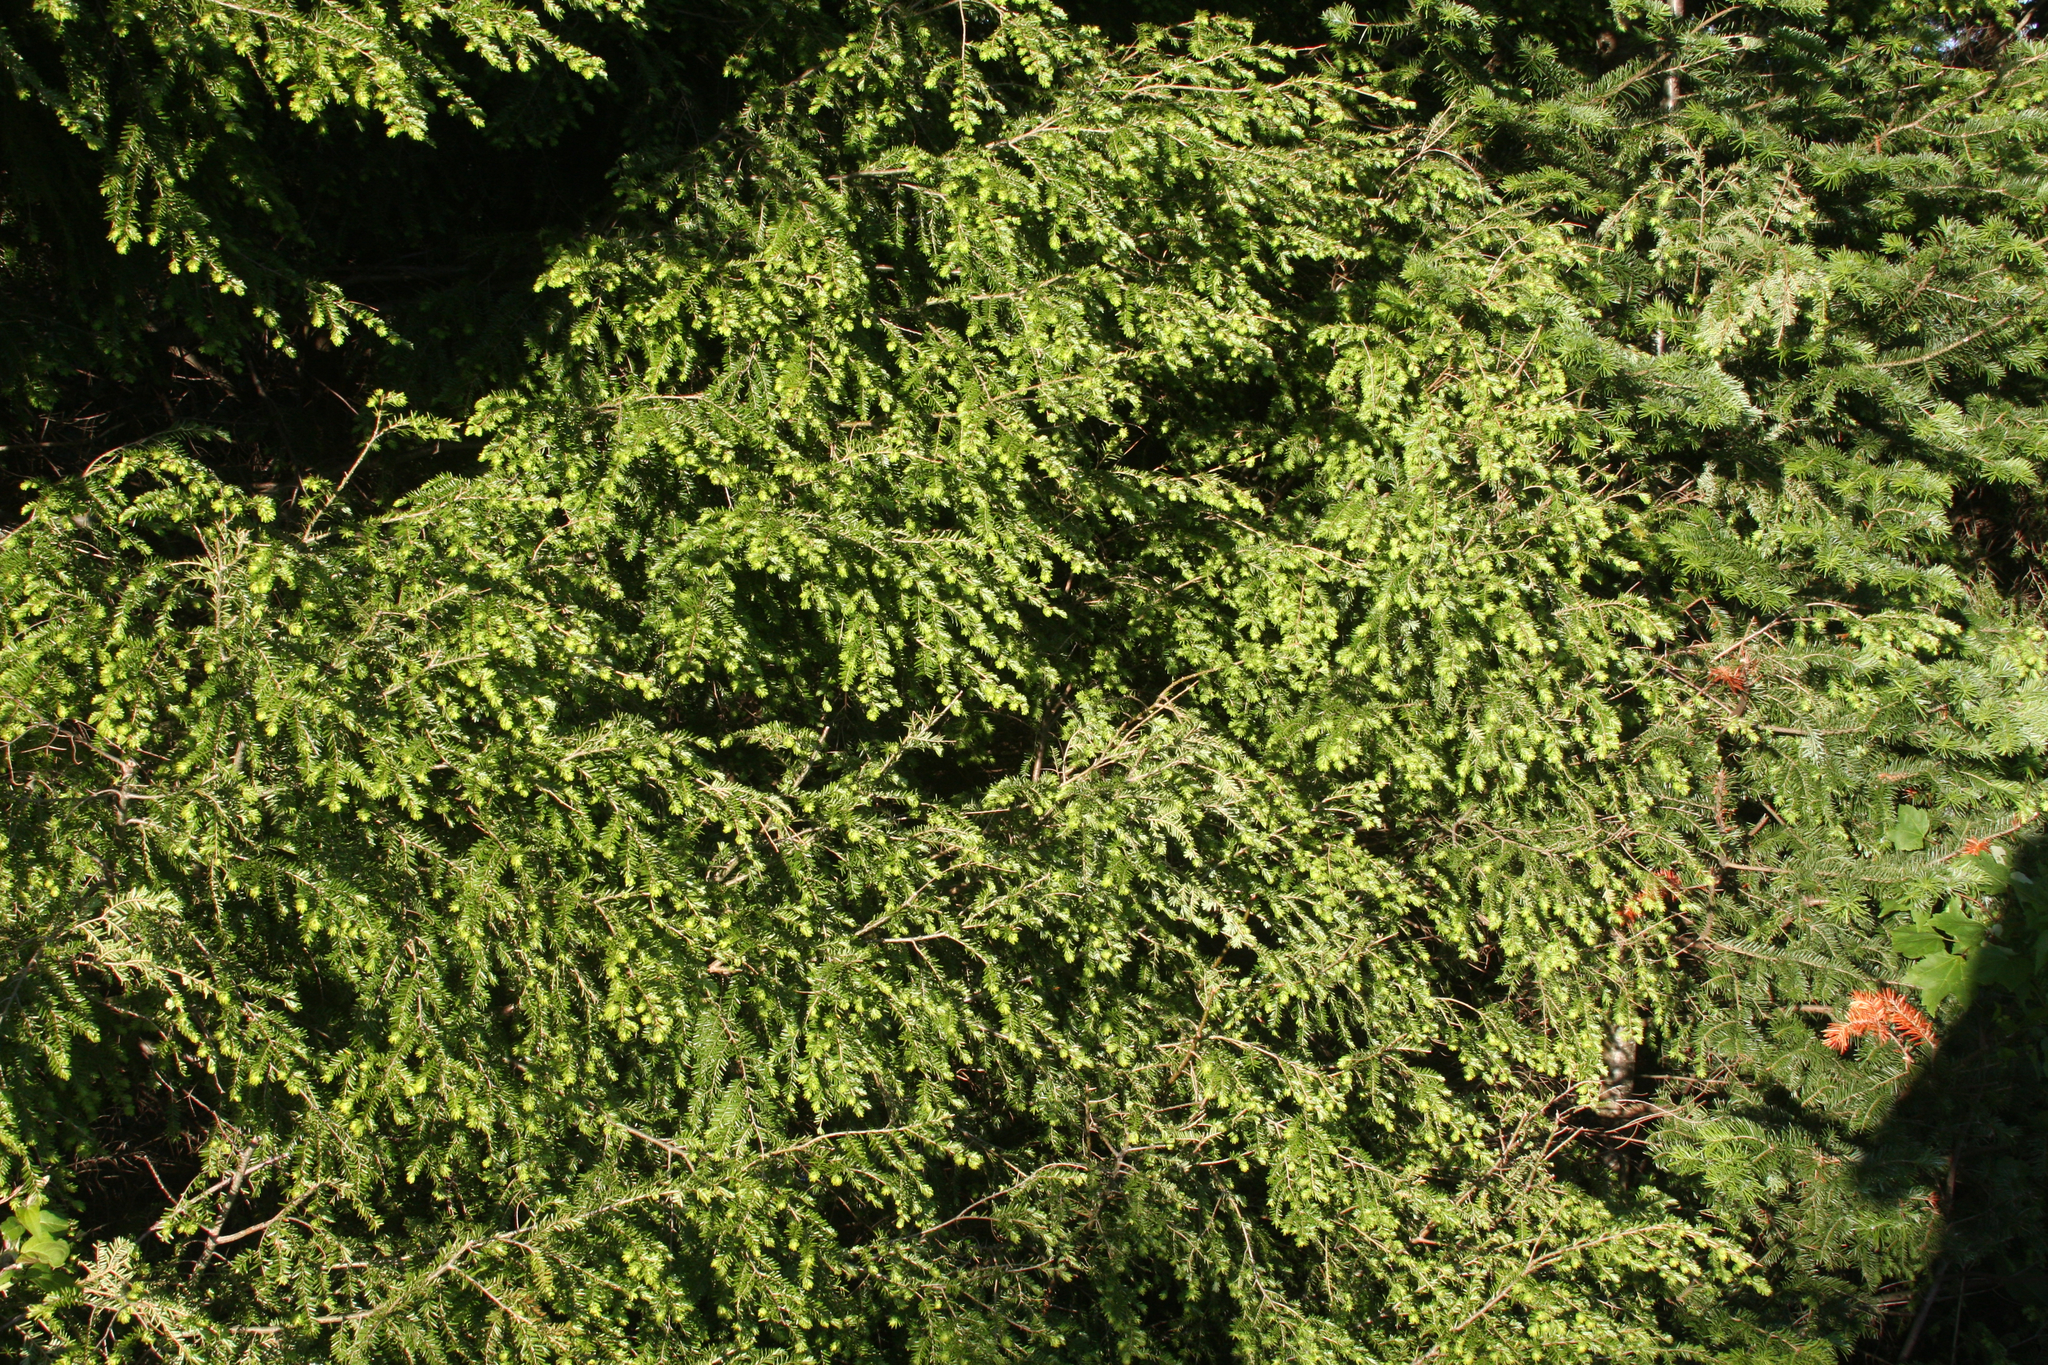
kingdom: Plantae
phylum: Tracheophyta
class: Pinopsida
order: Pinales
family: Pinaceae
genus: Tsuga
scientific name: Tsuga canadensis
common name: Eastern hemlock
